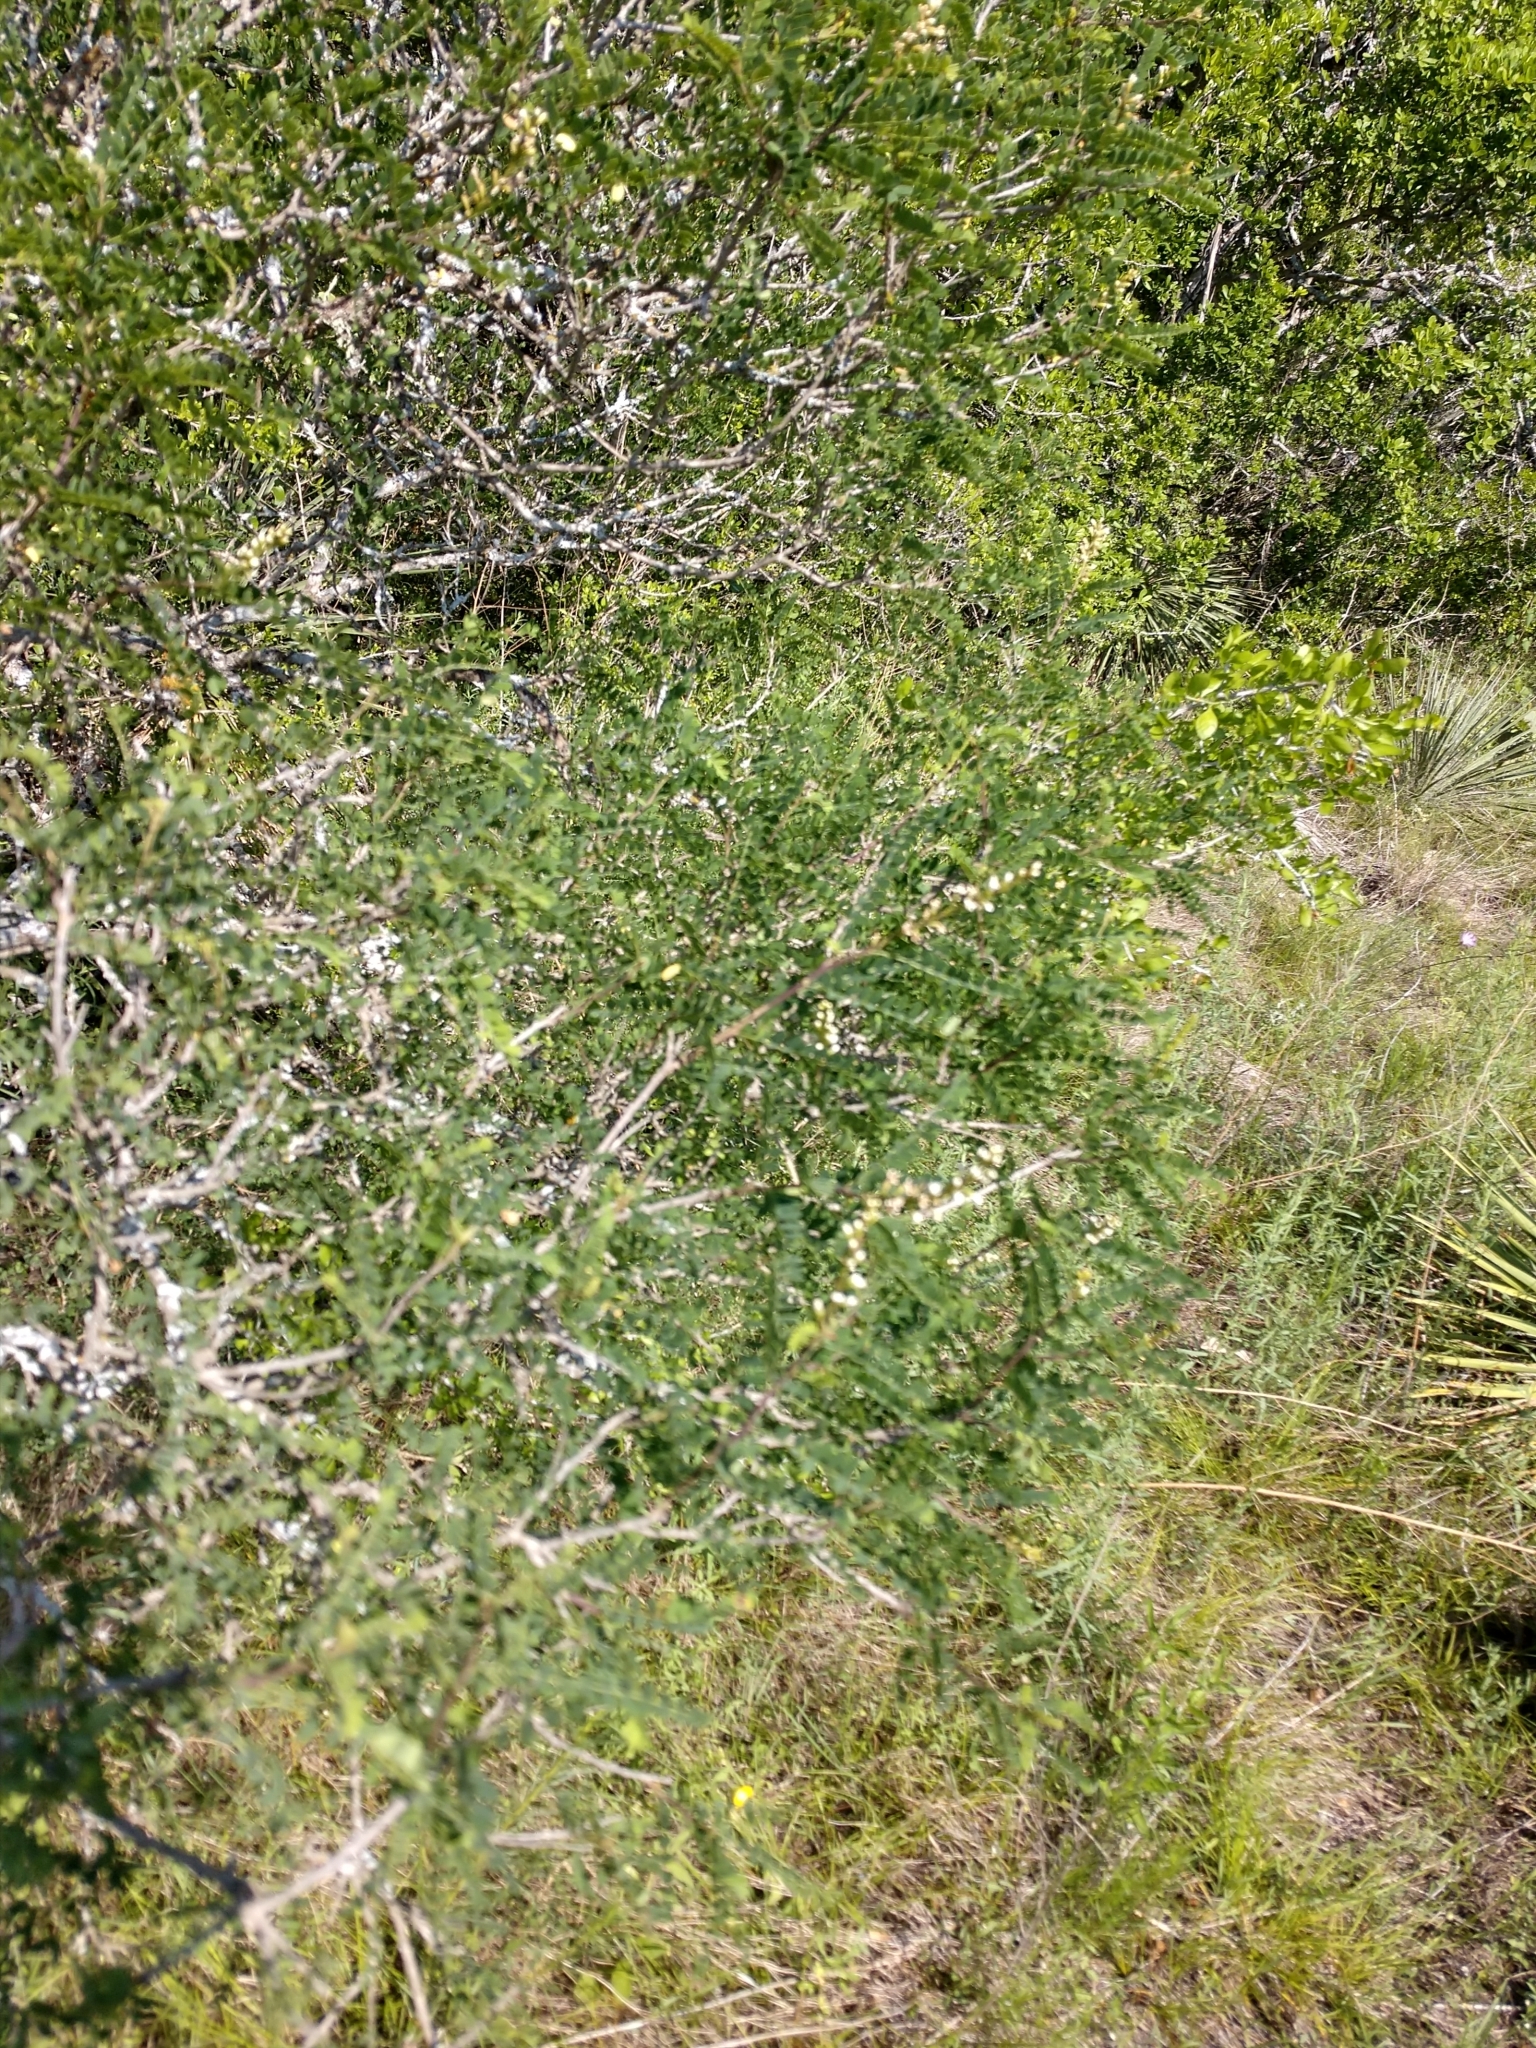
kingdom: Plantae
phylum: Tracheophyta
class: Magnoliopsida
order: Fabales
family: Fabaceae
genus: Eysenhardtia
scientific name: Eysenhardtia texana
